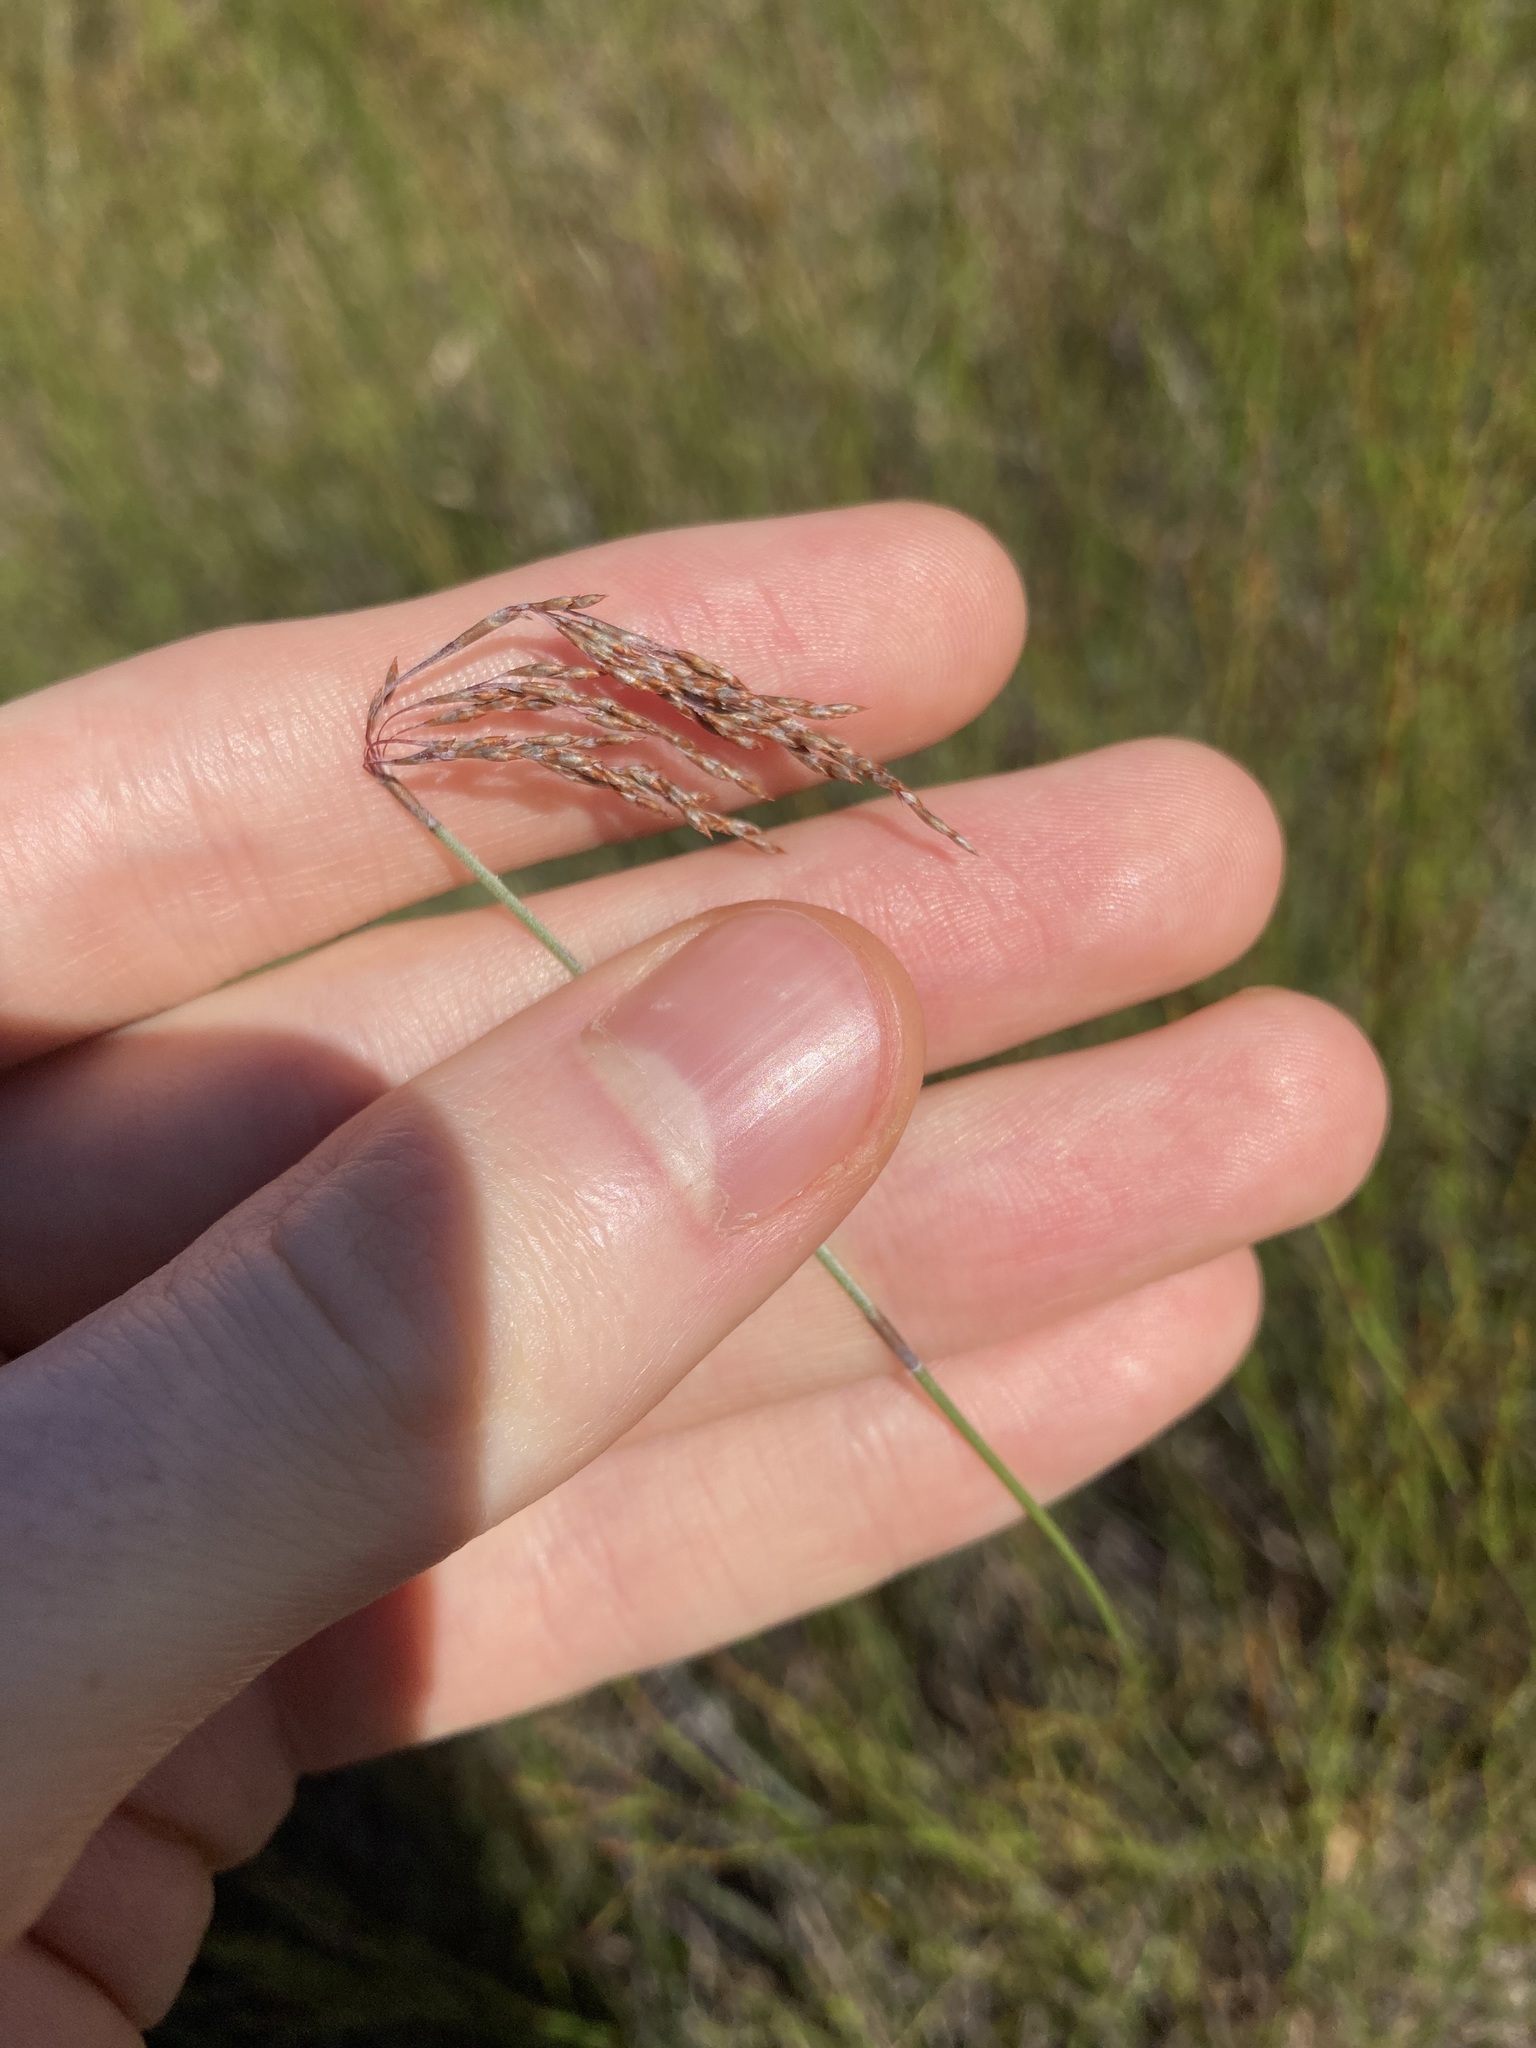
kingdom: Plantae
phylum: Tracheophyta
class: Liliopsida
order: Poales
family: Restionaceae
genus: Leptocarpus
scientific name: Leptocarpus tenax
